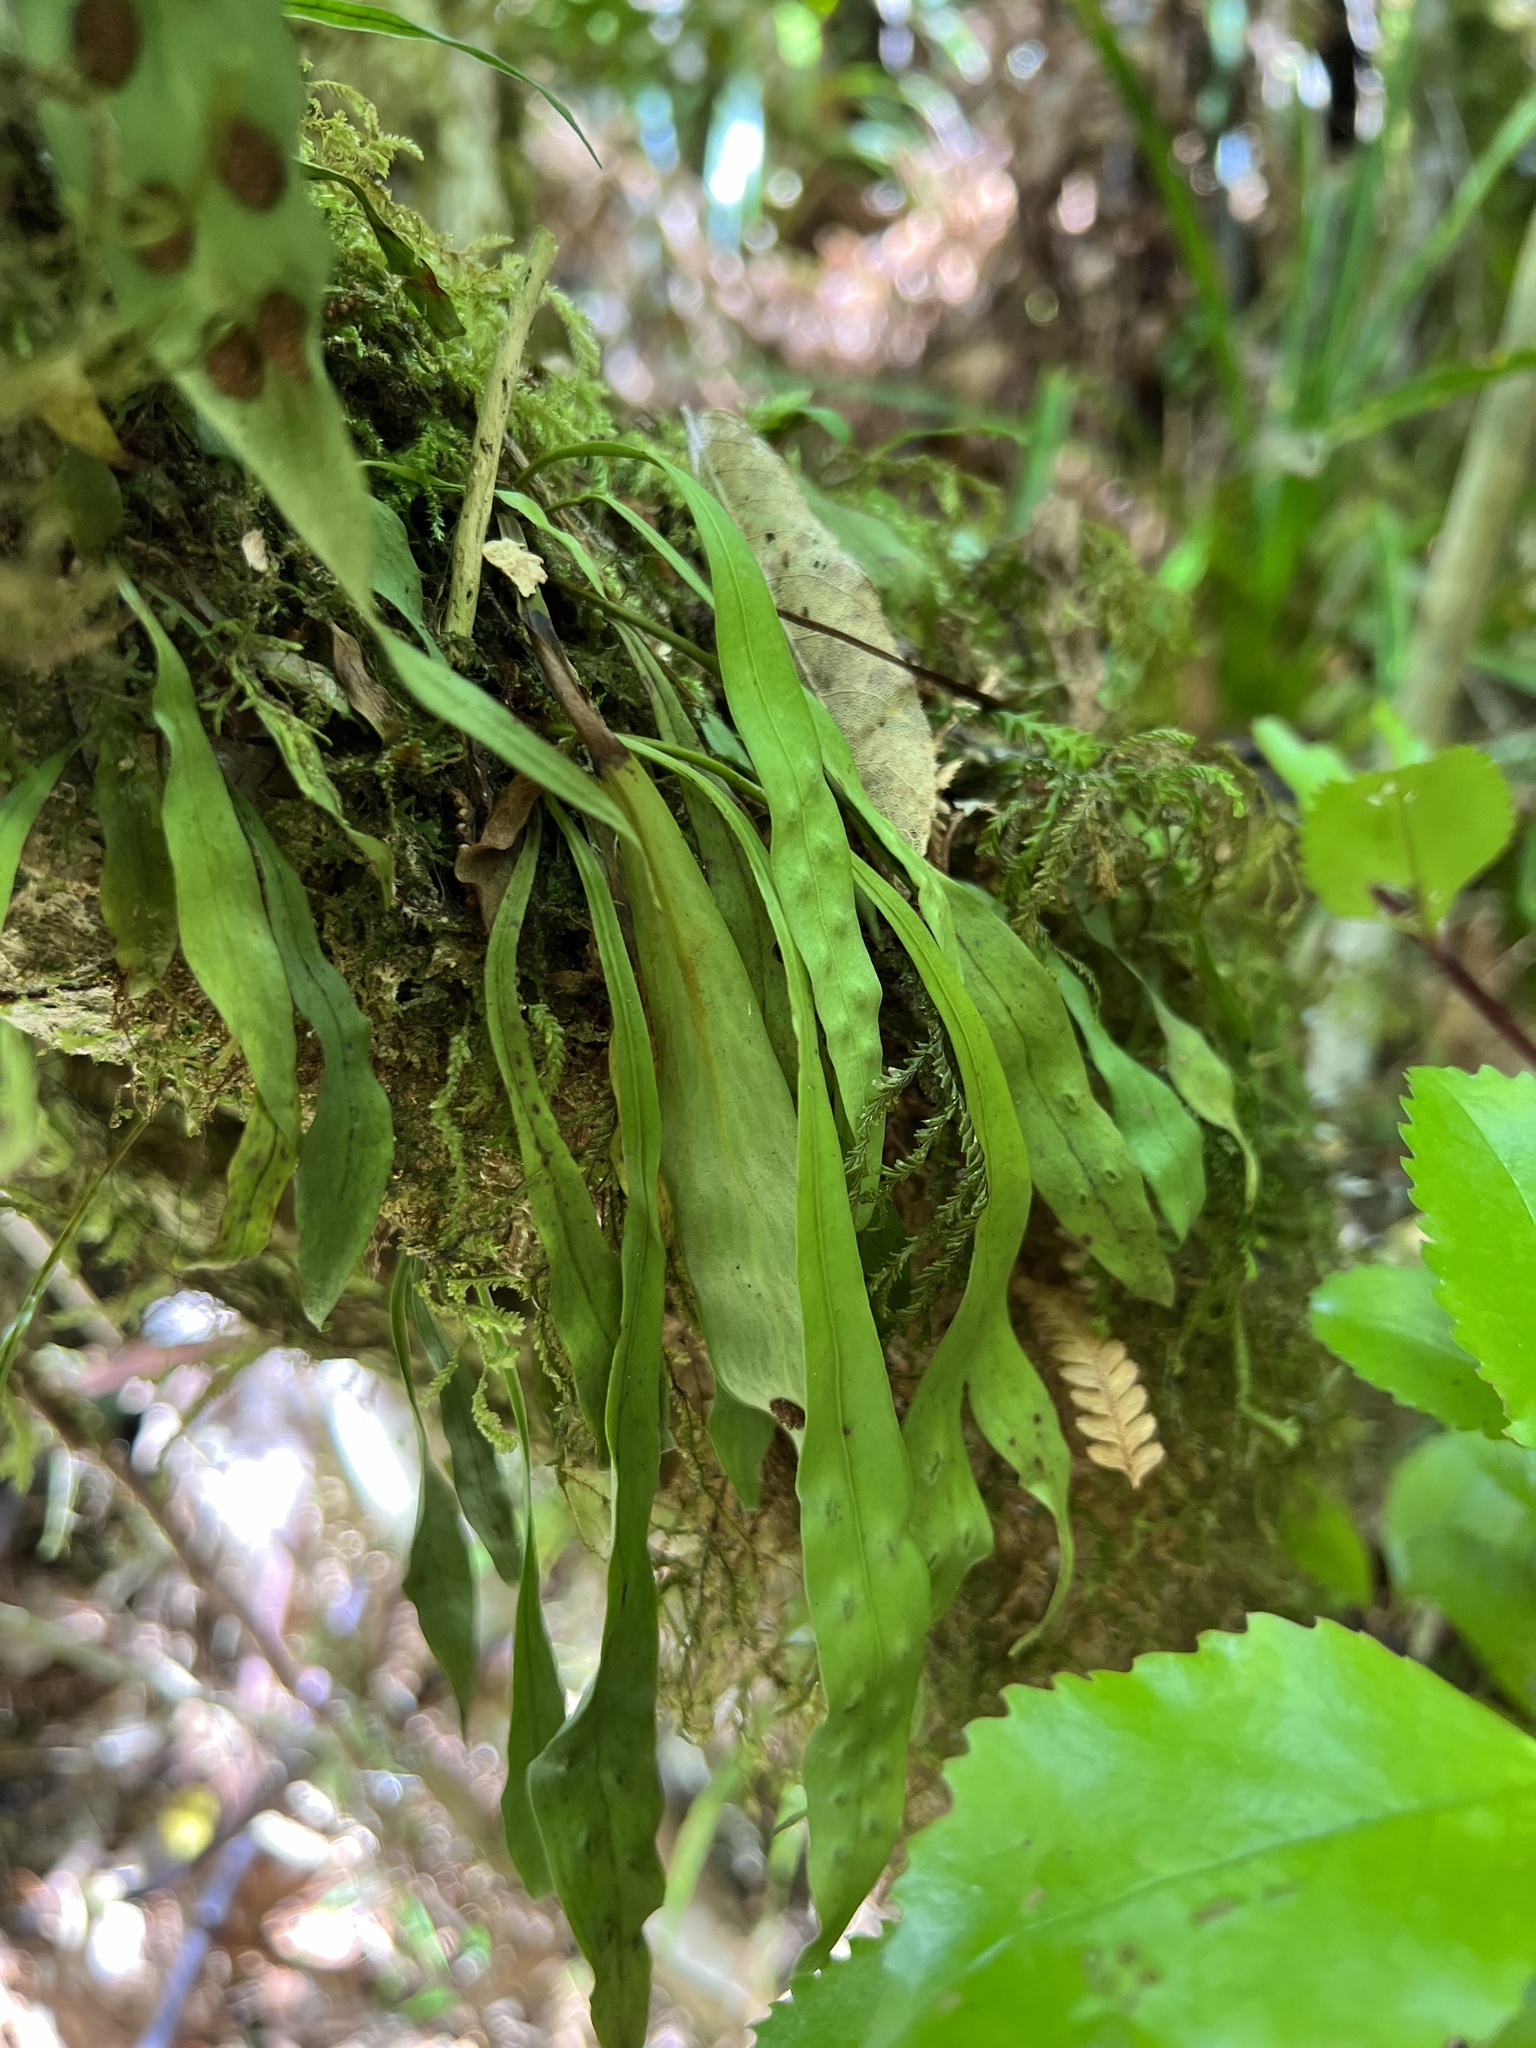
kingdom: Plantae
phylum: Tracheophyta
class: Polypodiopsida
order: Polypodiales
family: Polypodiaceae
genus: Loxogramme
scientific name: Loxogramme dictyopteris
